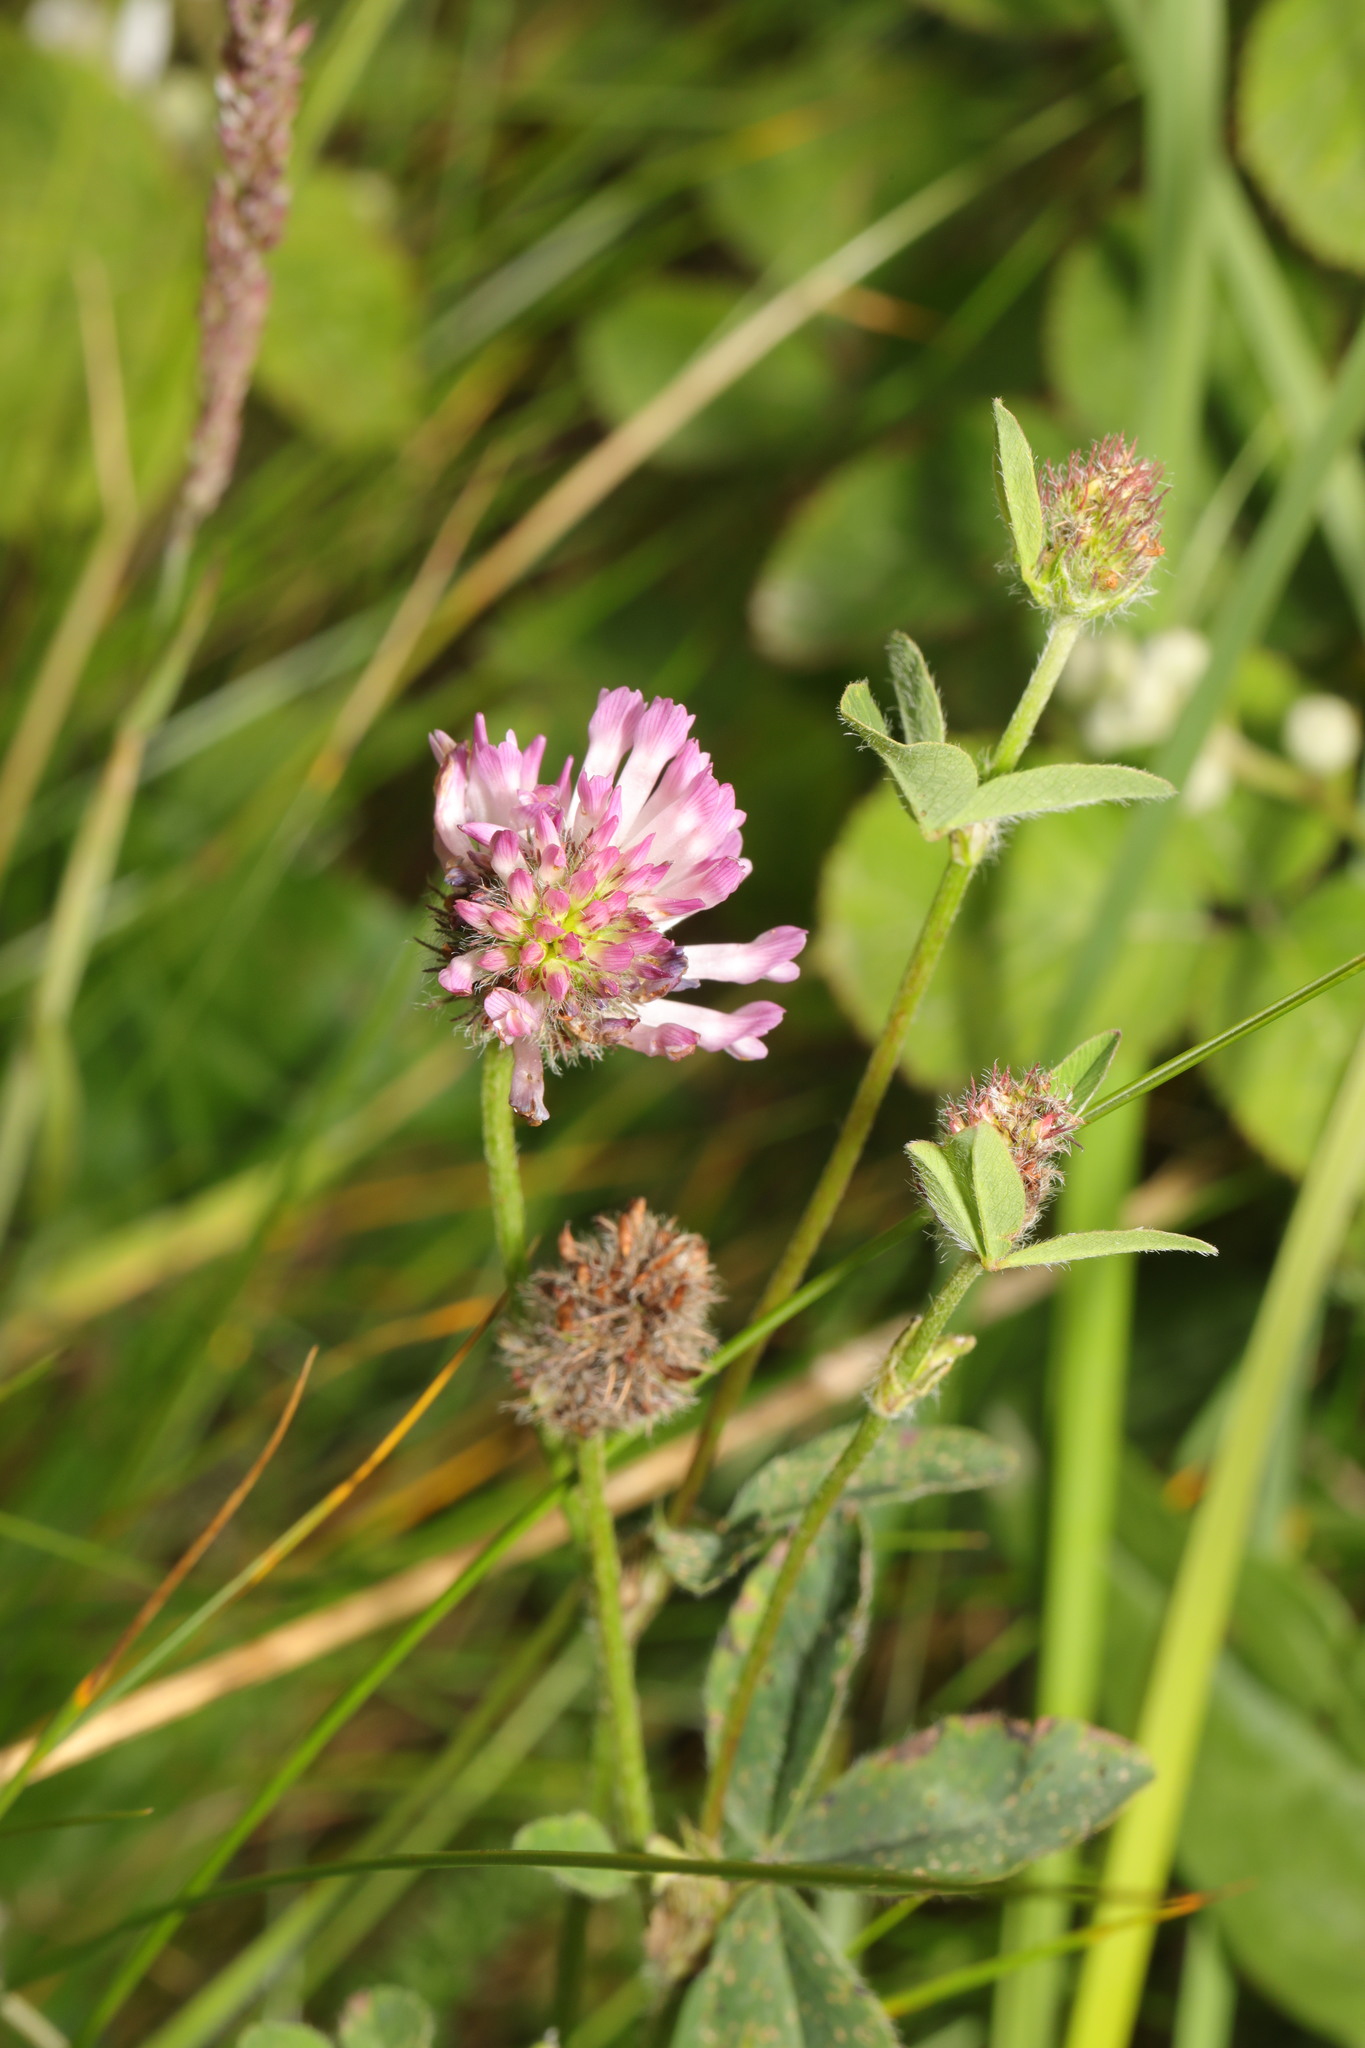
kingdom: Plantae
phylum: Tracheophyta
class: Magnoliopsida
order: Fabales
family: Fabaceae
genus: Trifolium
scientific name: Trifolium pratense
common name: Red clover
